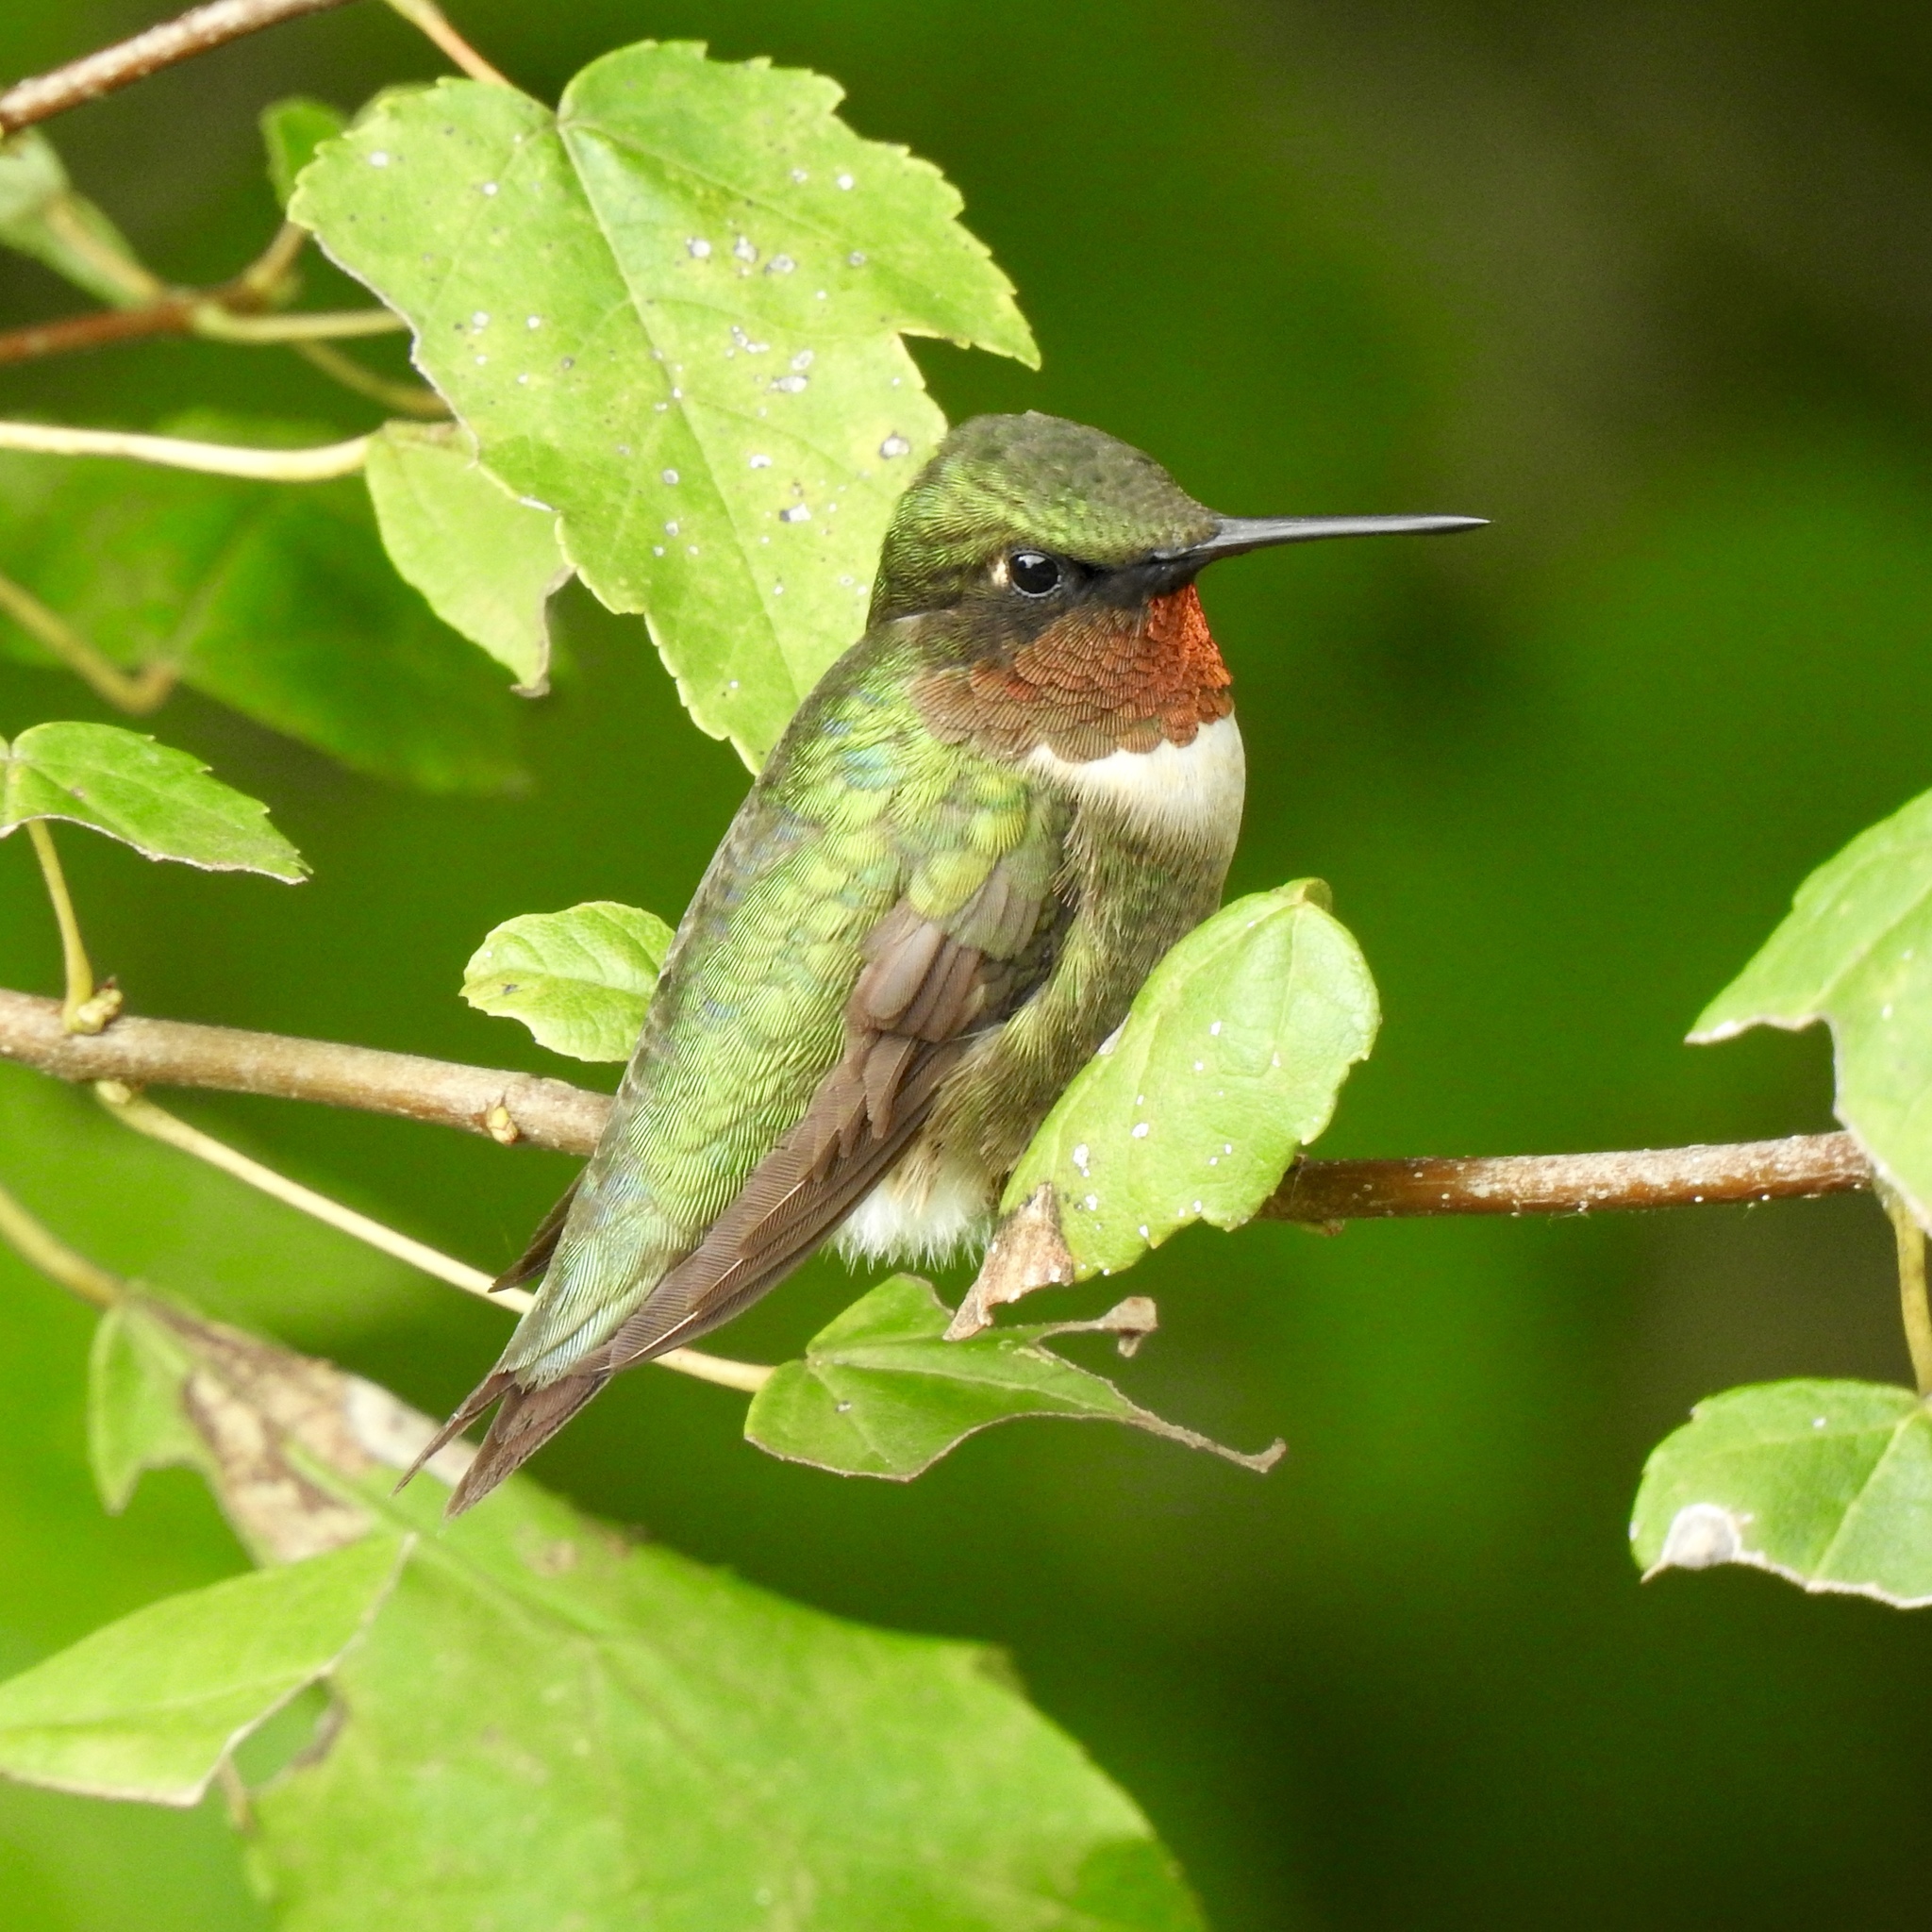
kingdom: Animalia
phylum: Chordata
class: Aves
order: Apodiformes
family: Trochilidae
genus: Archilochus
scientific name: Archilochus colubris
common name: Ruby-throated hummingbird
